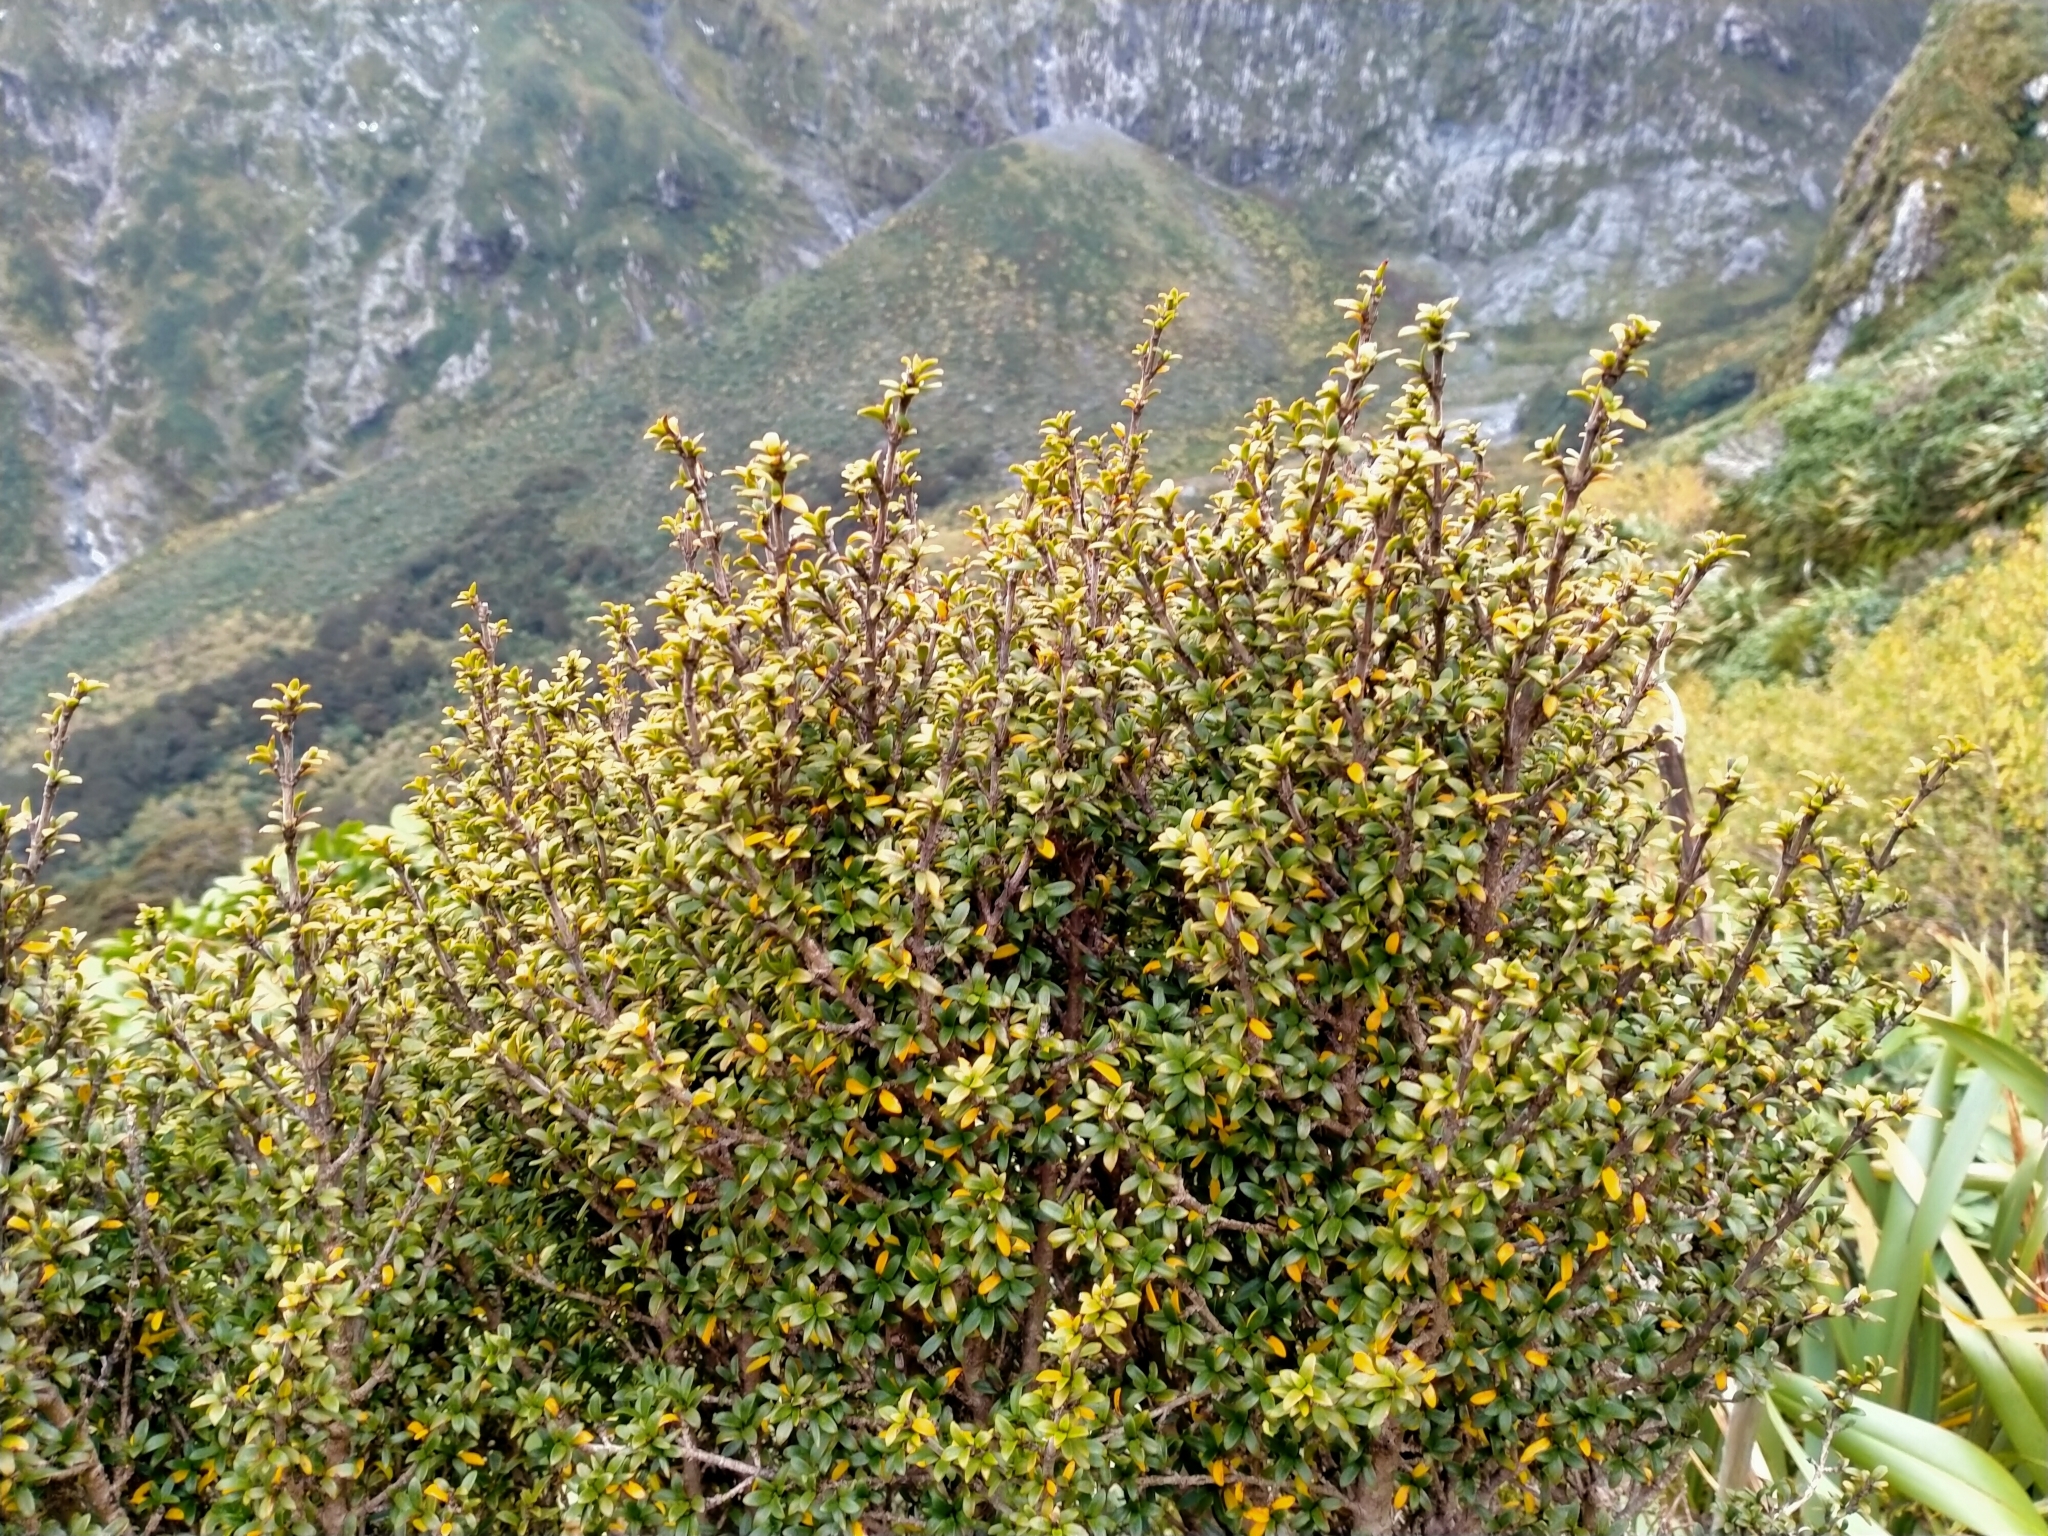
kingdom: Plantae
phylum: Tracheophyta
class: Magnoliopsida
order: Gentianales
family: Rubiaceae
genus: Coprosma
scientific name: Coprosma pseudocuneata
